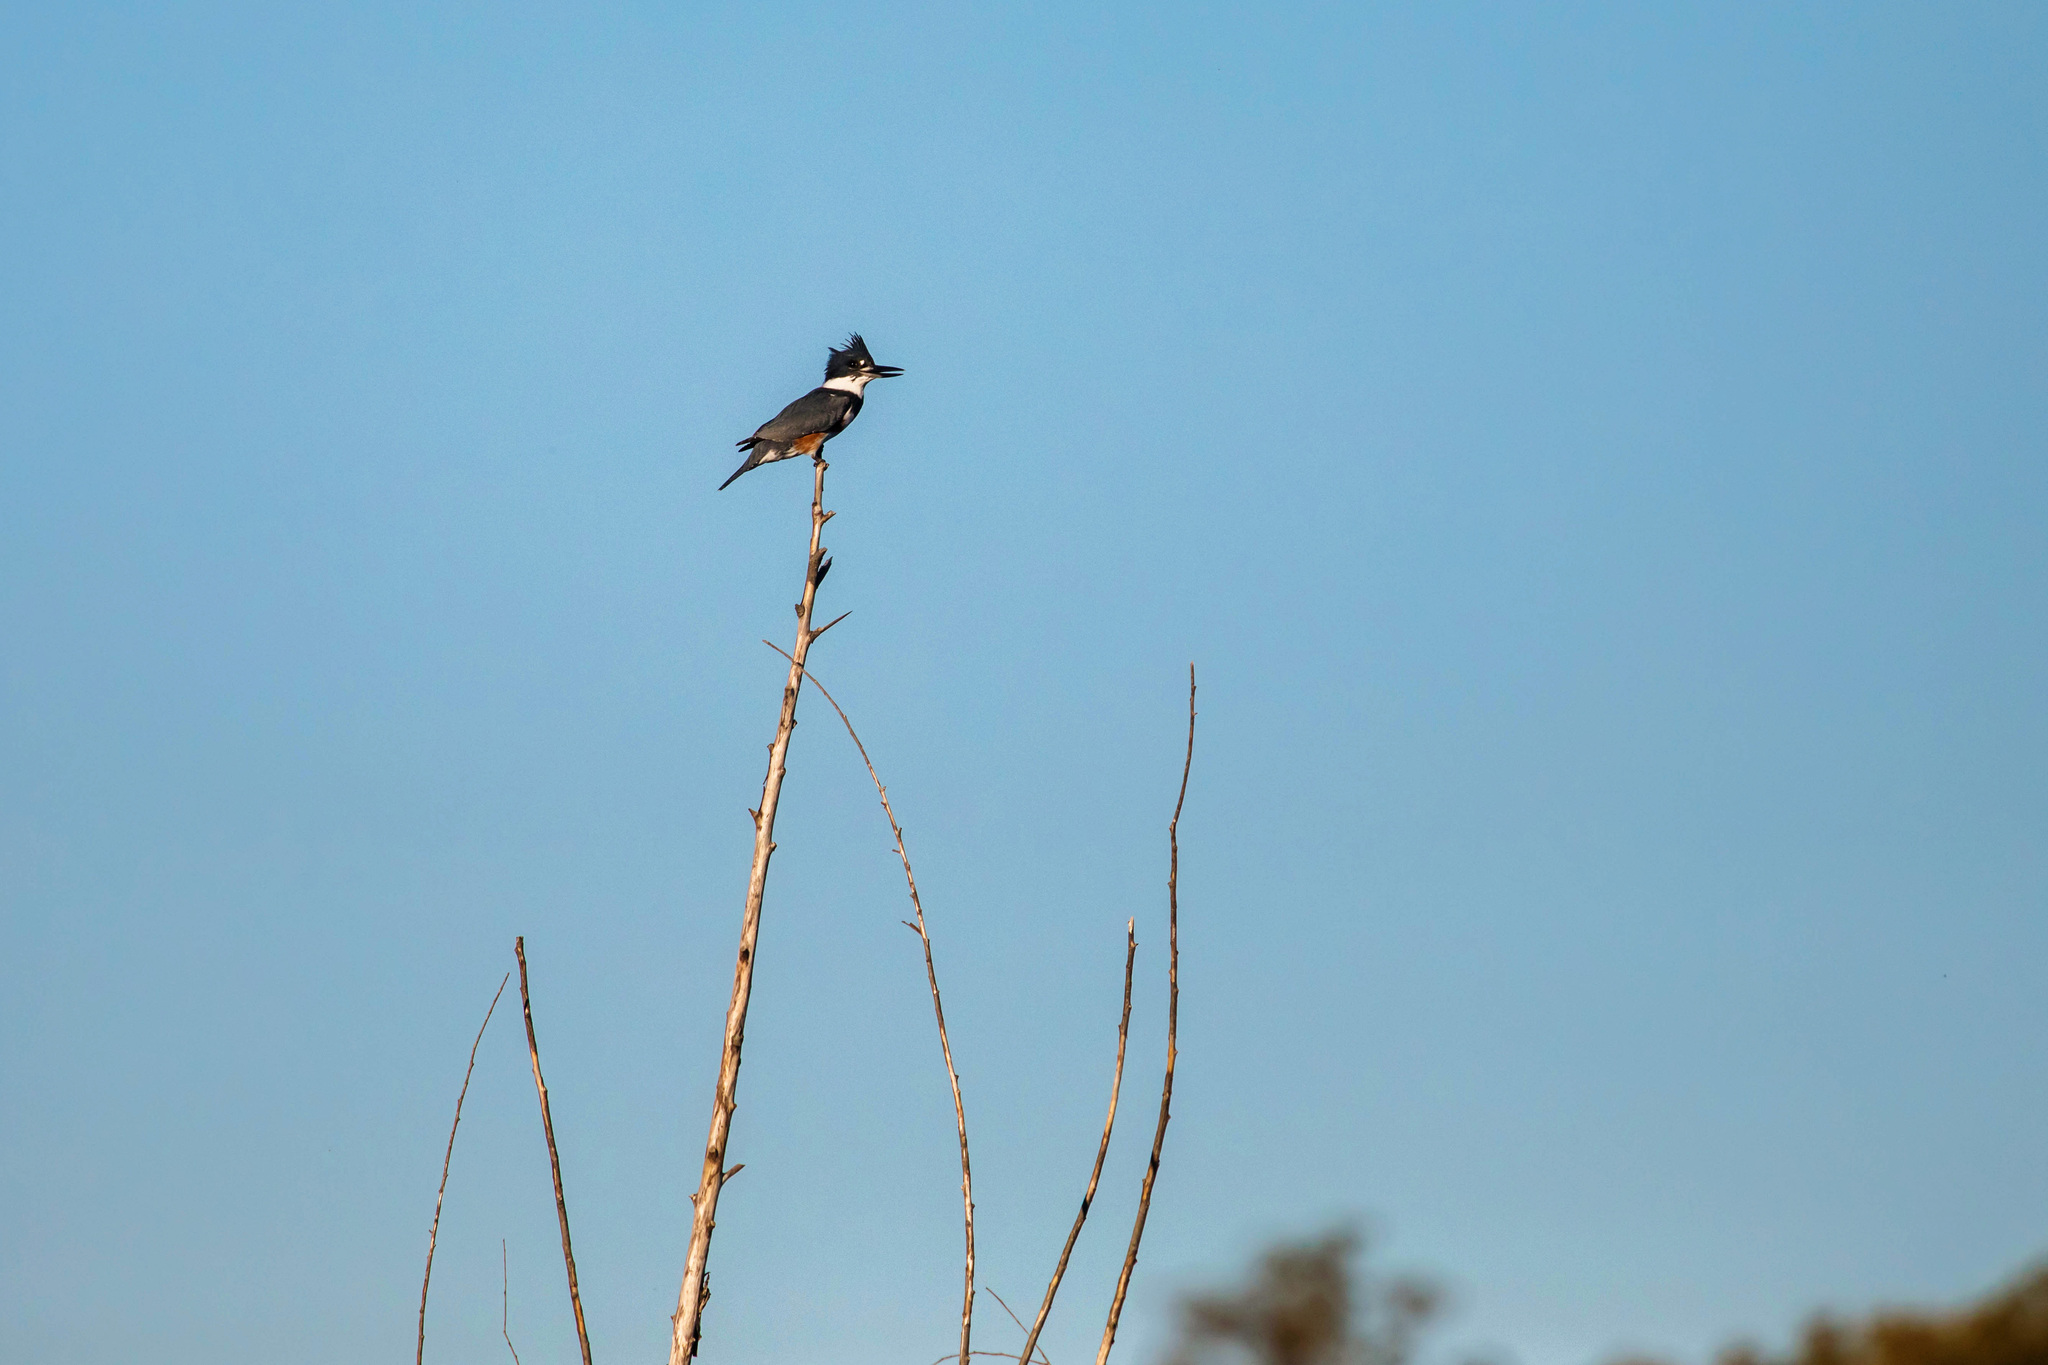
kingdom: Animalia
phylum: Chordata
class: Aves
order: Coraciiformes
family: Alcedinidae
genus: Megaceryle
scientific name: Megaceryle alcyon
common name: Belted kingfisher
